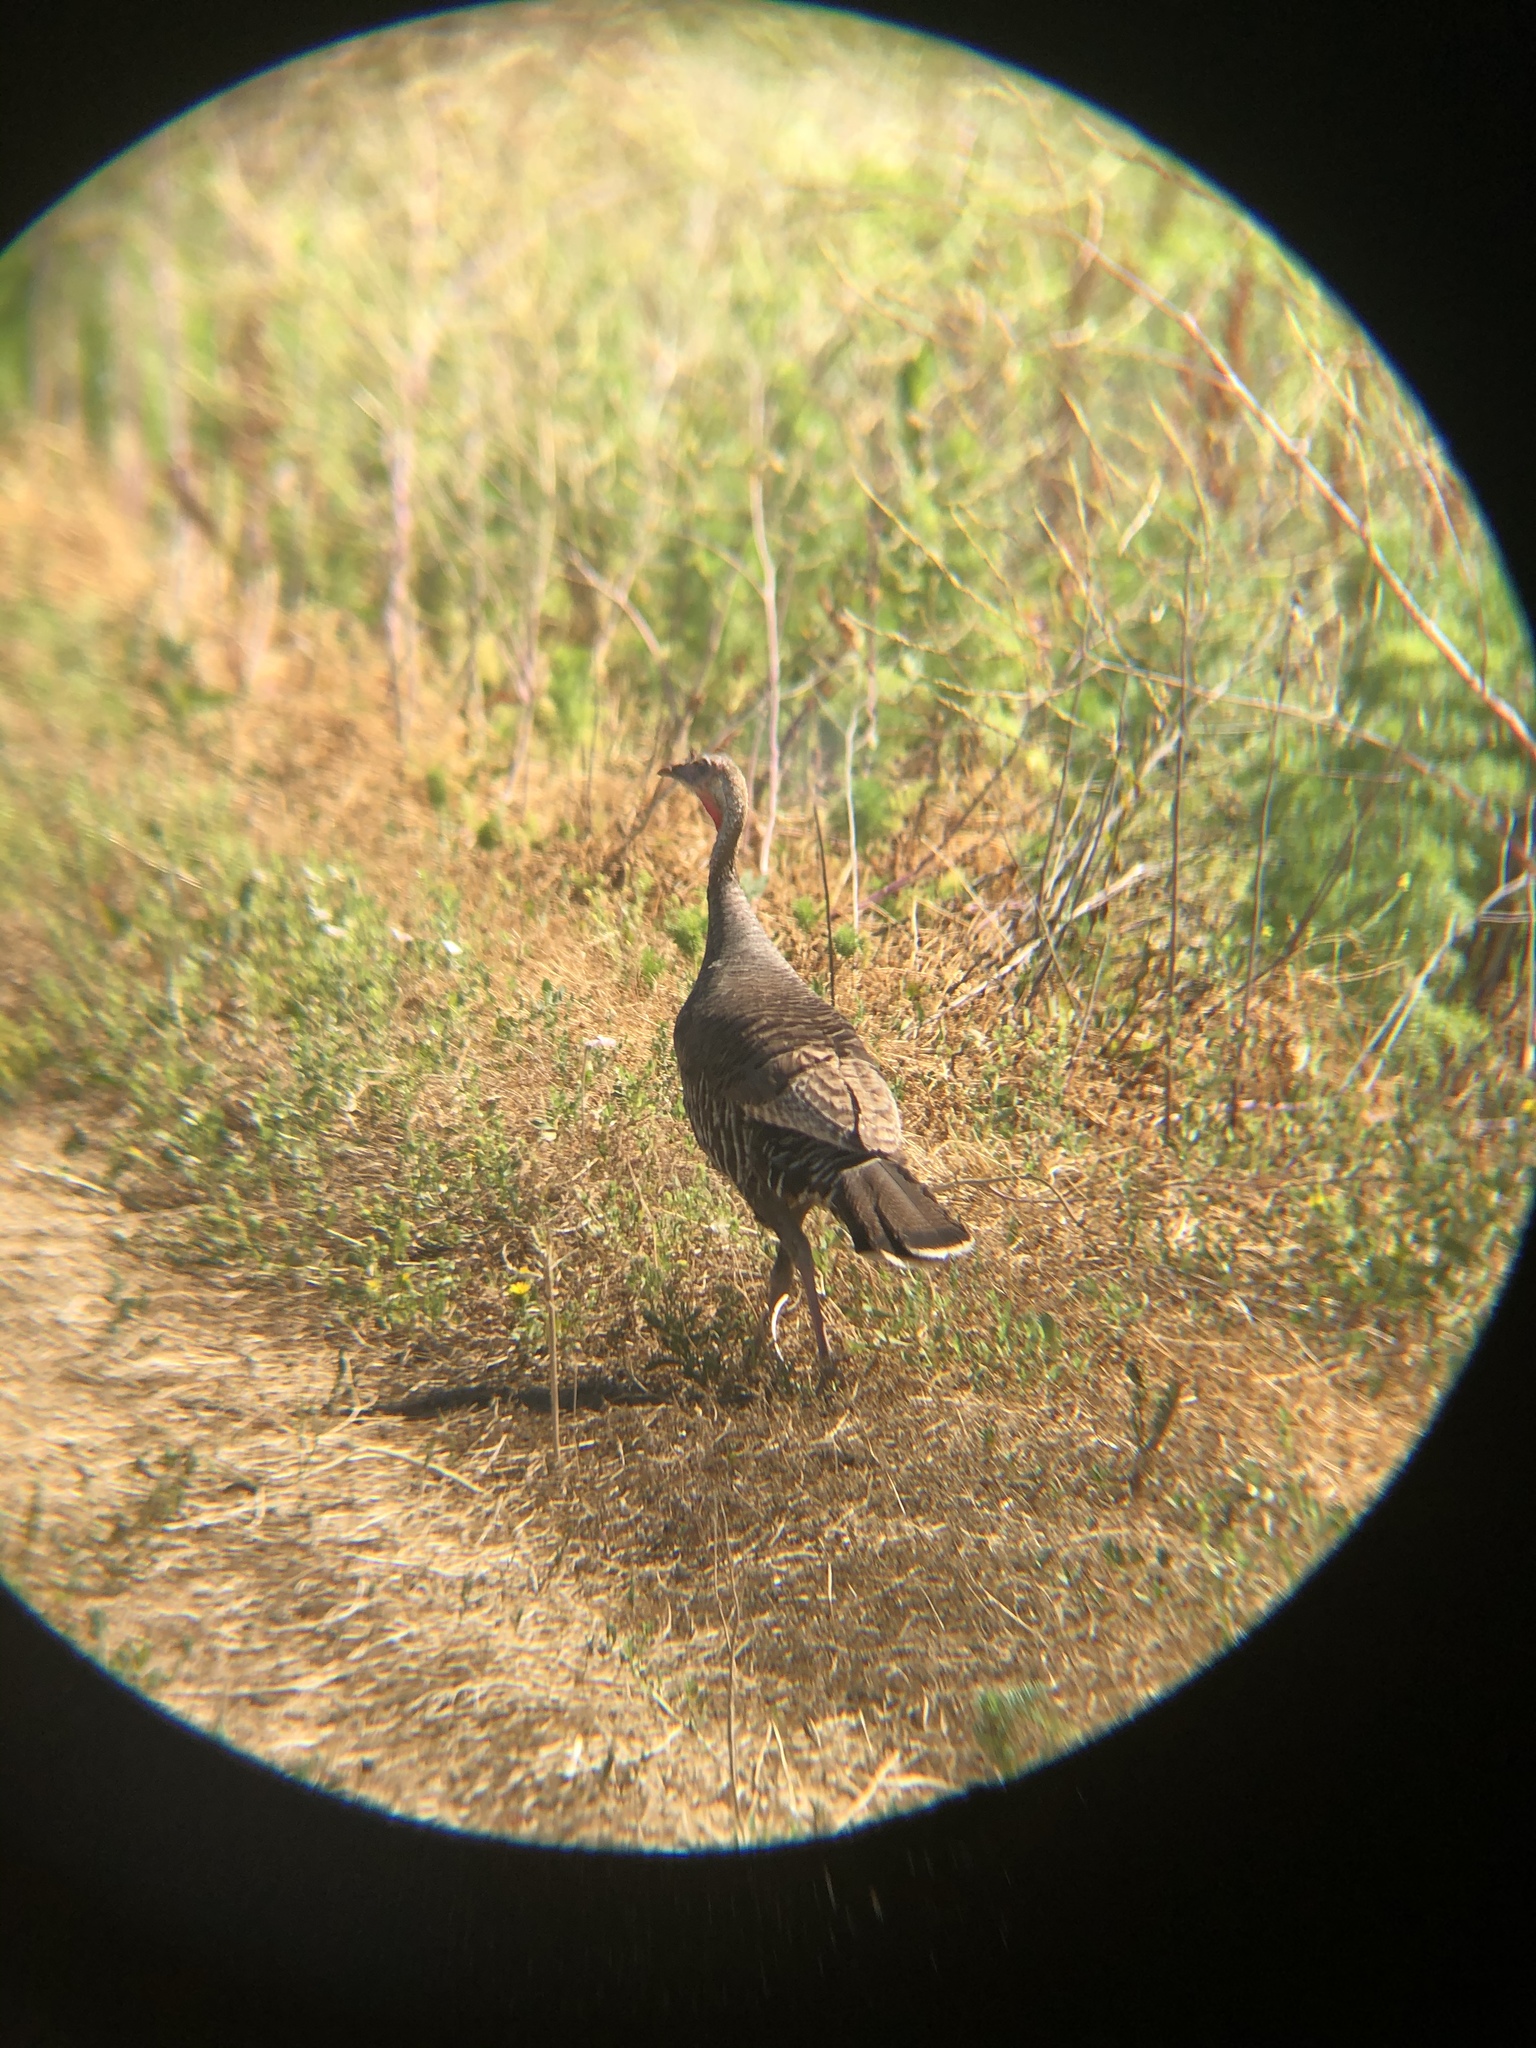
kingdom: Animalia
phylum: Chordata
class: Aves
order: Galliformes
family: Phasianidae
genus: Meleagris
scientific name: Meleagris gallopavo
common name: Wild turkey
